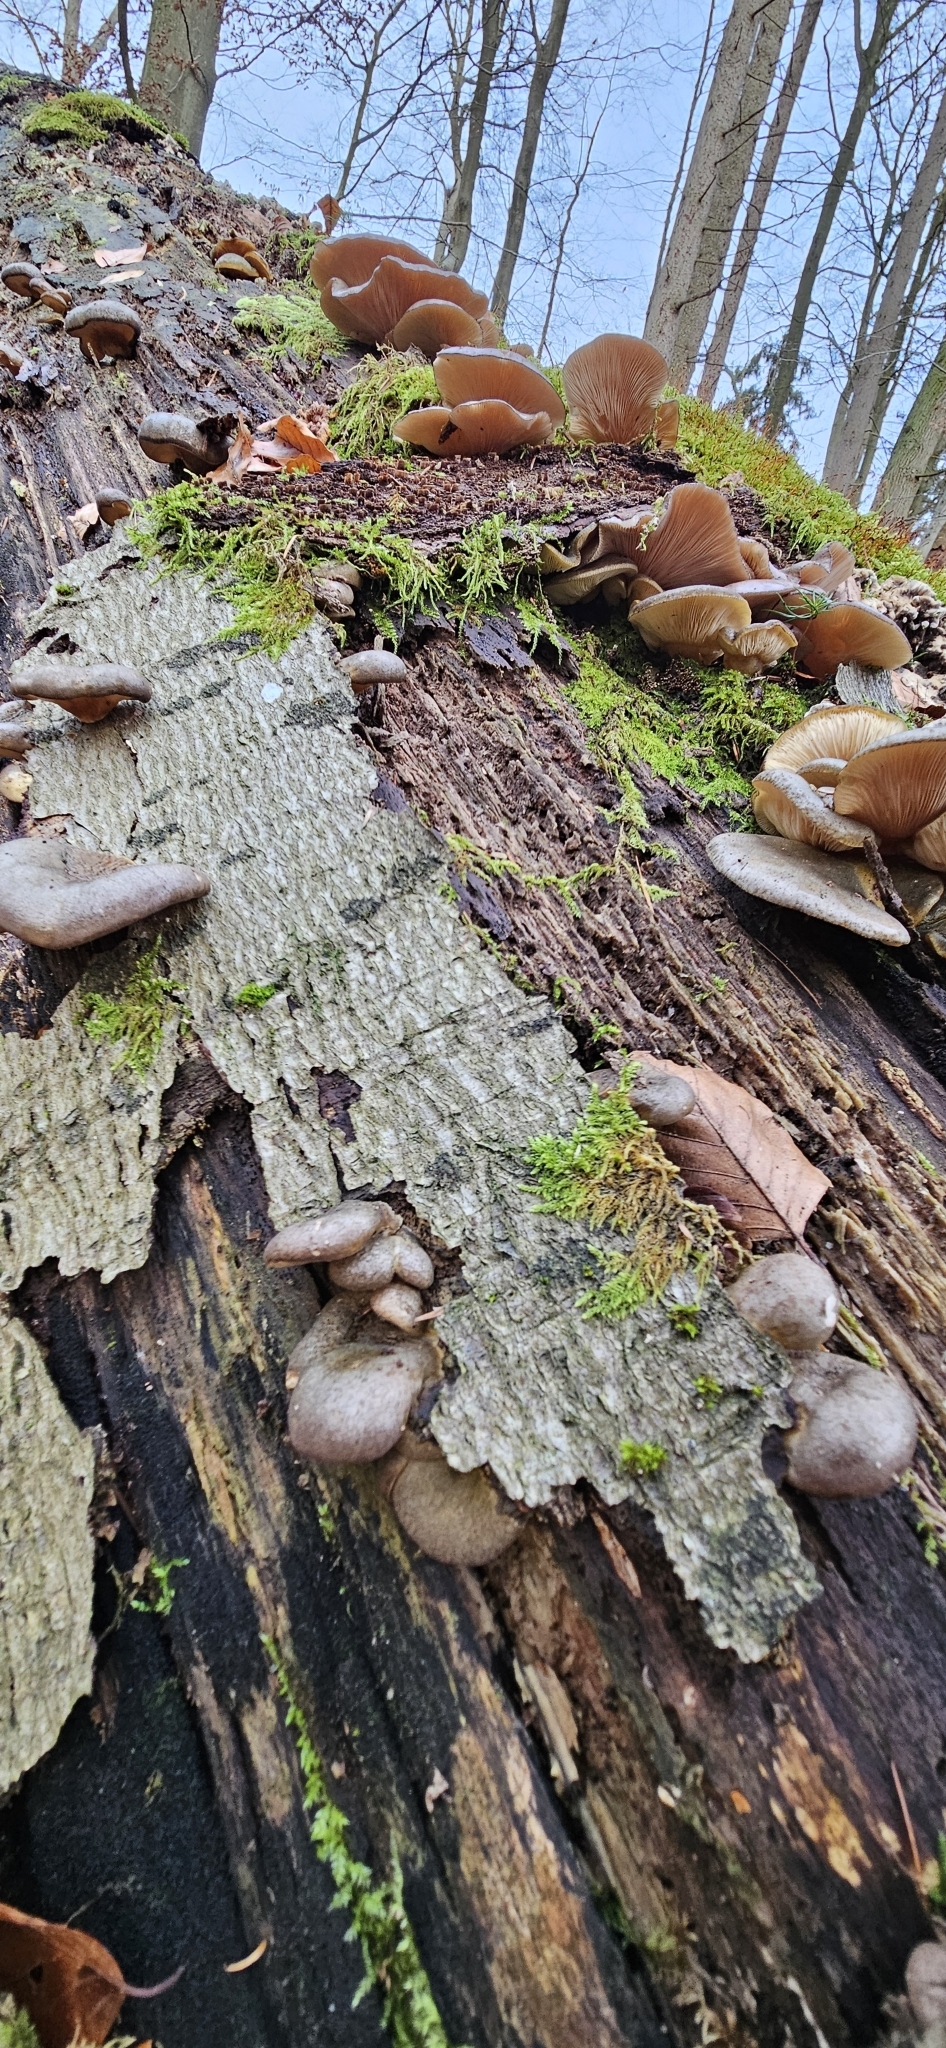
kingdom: Fungi
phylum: Basidiomycota
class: Agaricomycetes
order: Agaricales
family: Sarcomyxaceae
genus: Sarcomyxa
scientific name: Sarcomyxa serotina
